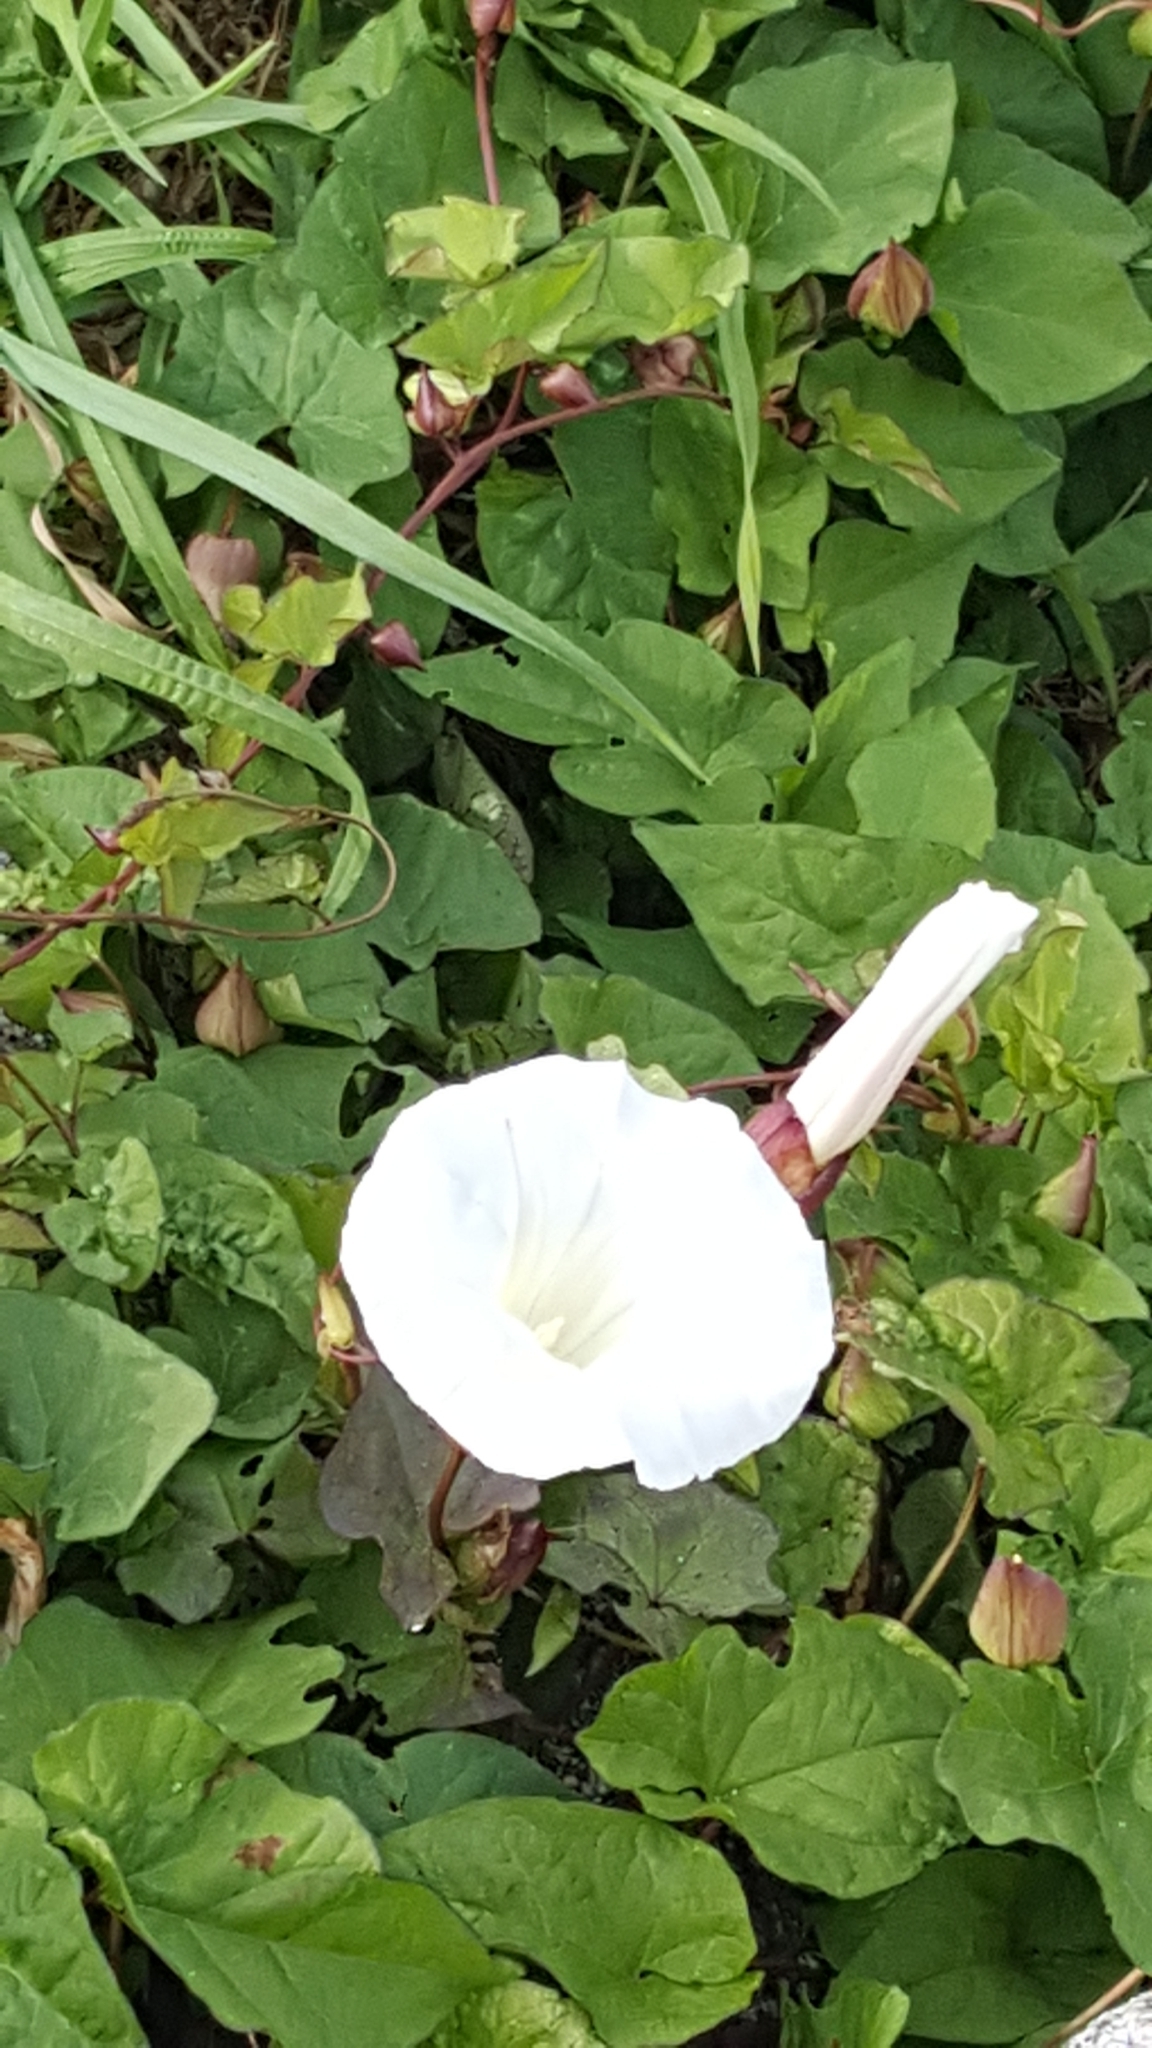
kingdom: Plantae
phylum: Tracheophyta
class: Magnoliopsida
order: Solanales
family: Convolvulaceae
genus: Calystegia
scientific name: Calystegia silvatica
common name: Large bindweed
